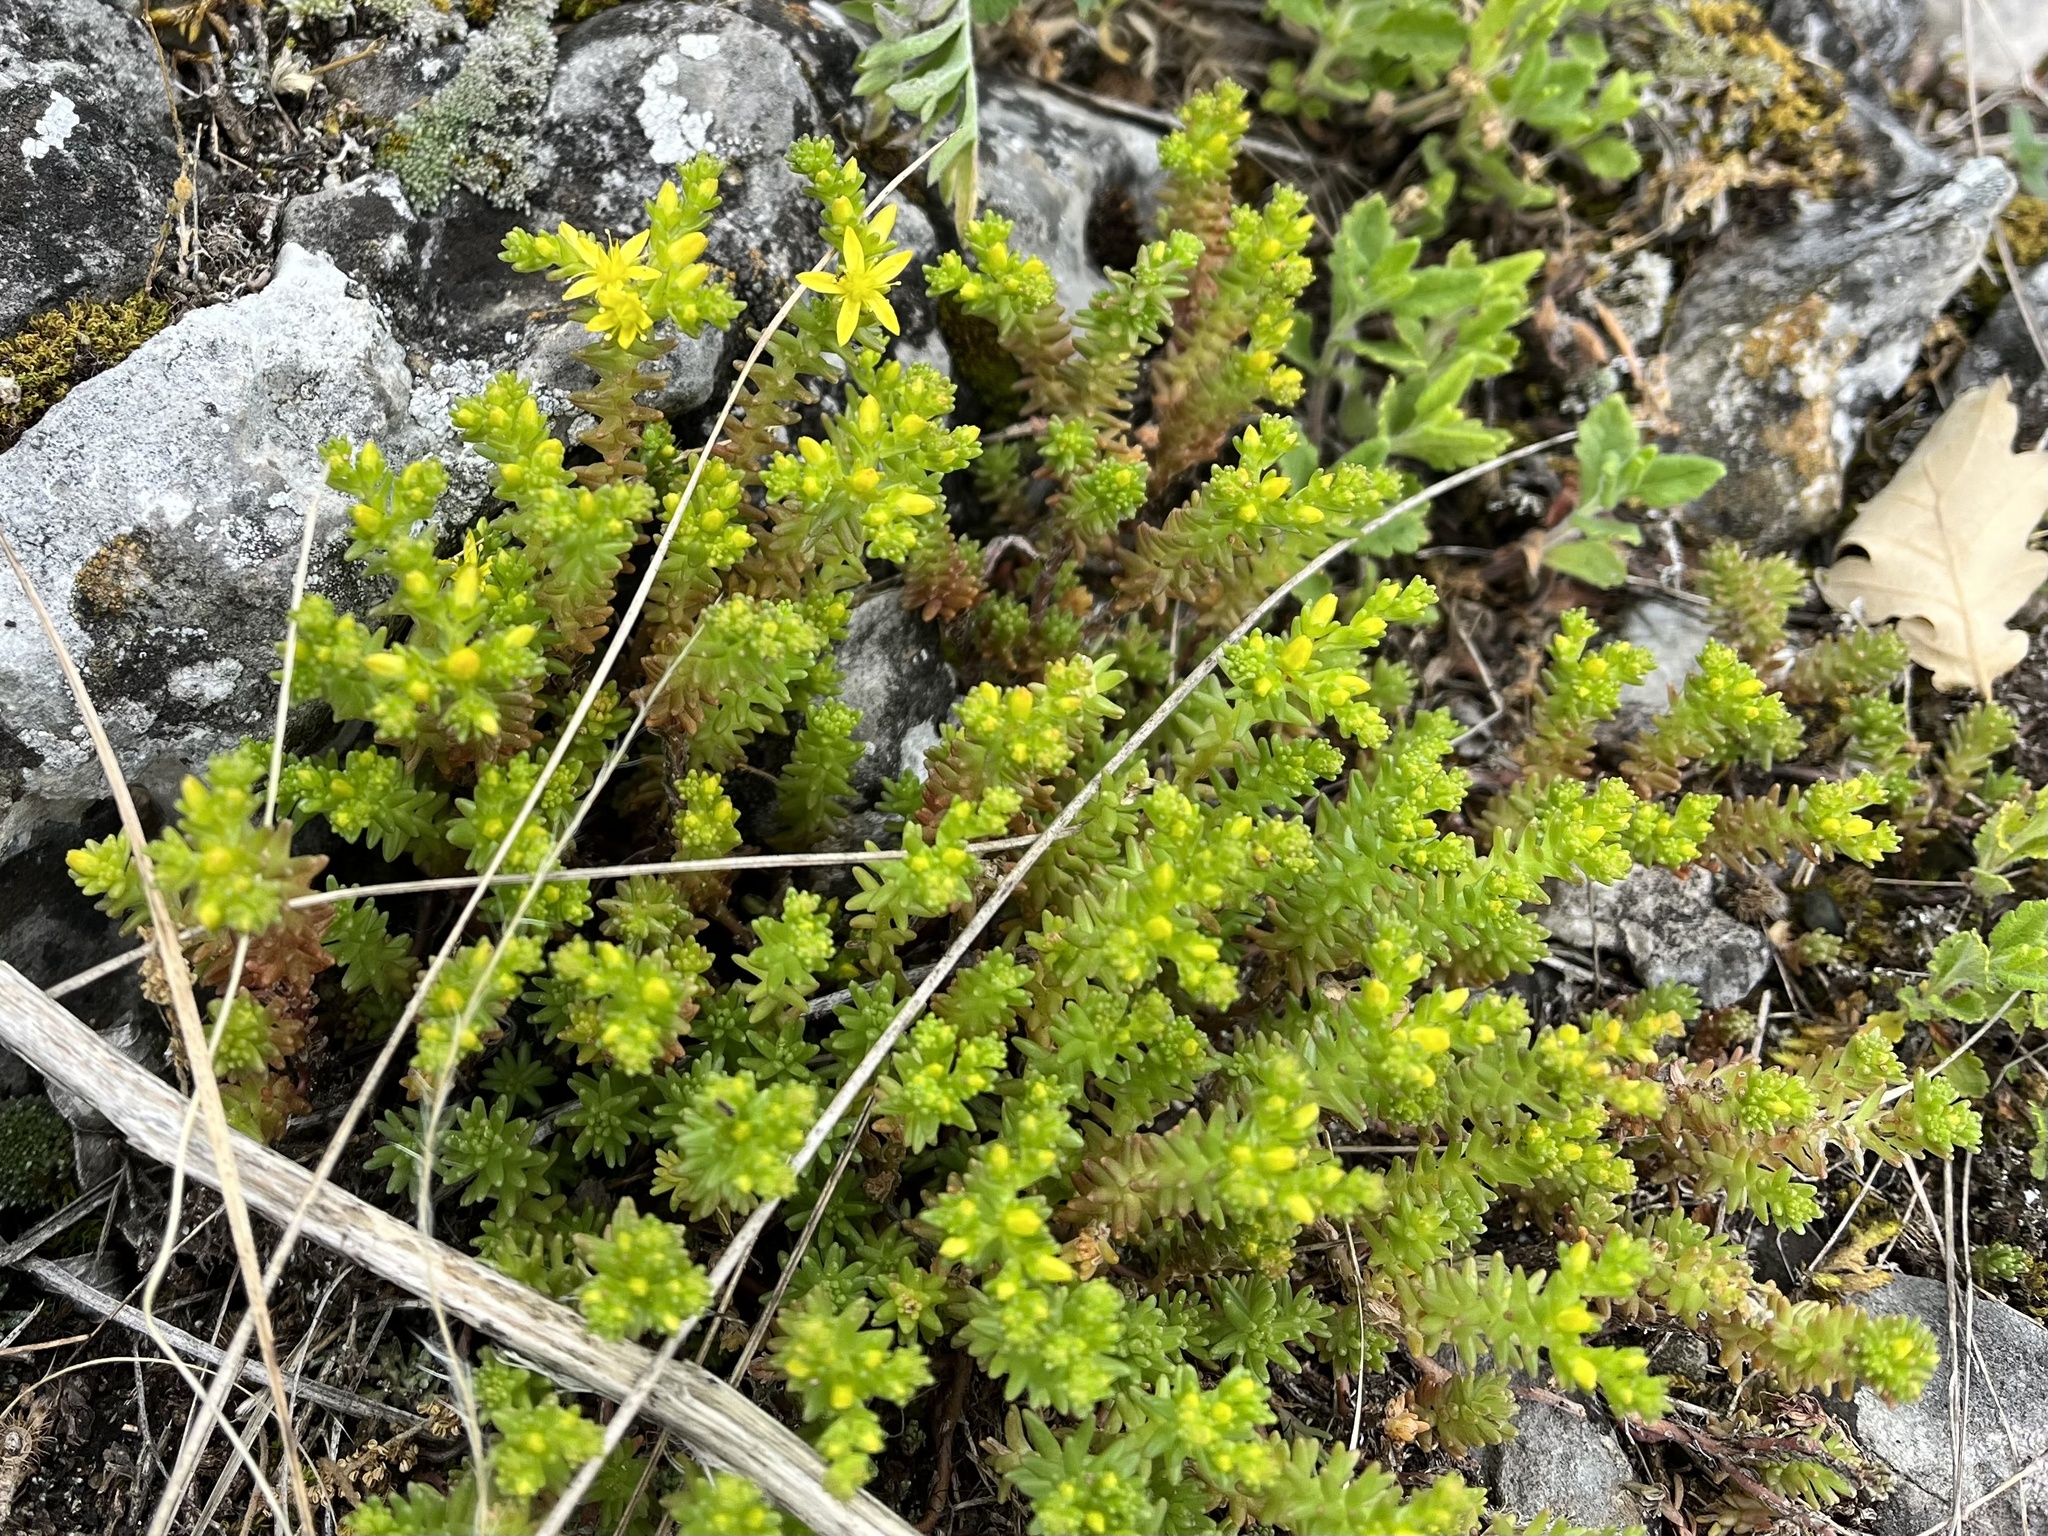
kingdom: Plantae
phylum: Tracheophyta
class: Magnoliopsida
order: Saxifragales
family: Crassulaceae
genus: Sedum
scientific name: Sedum sexangulare
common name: Tasteless stonecrop
